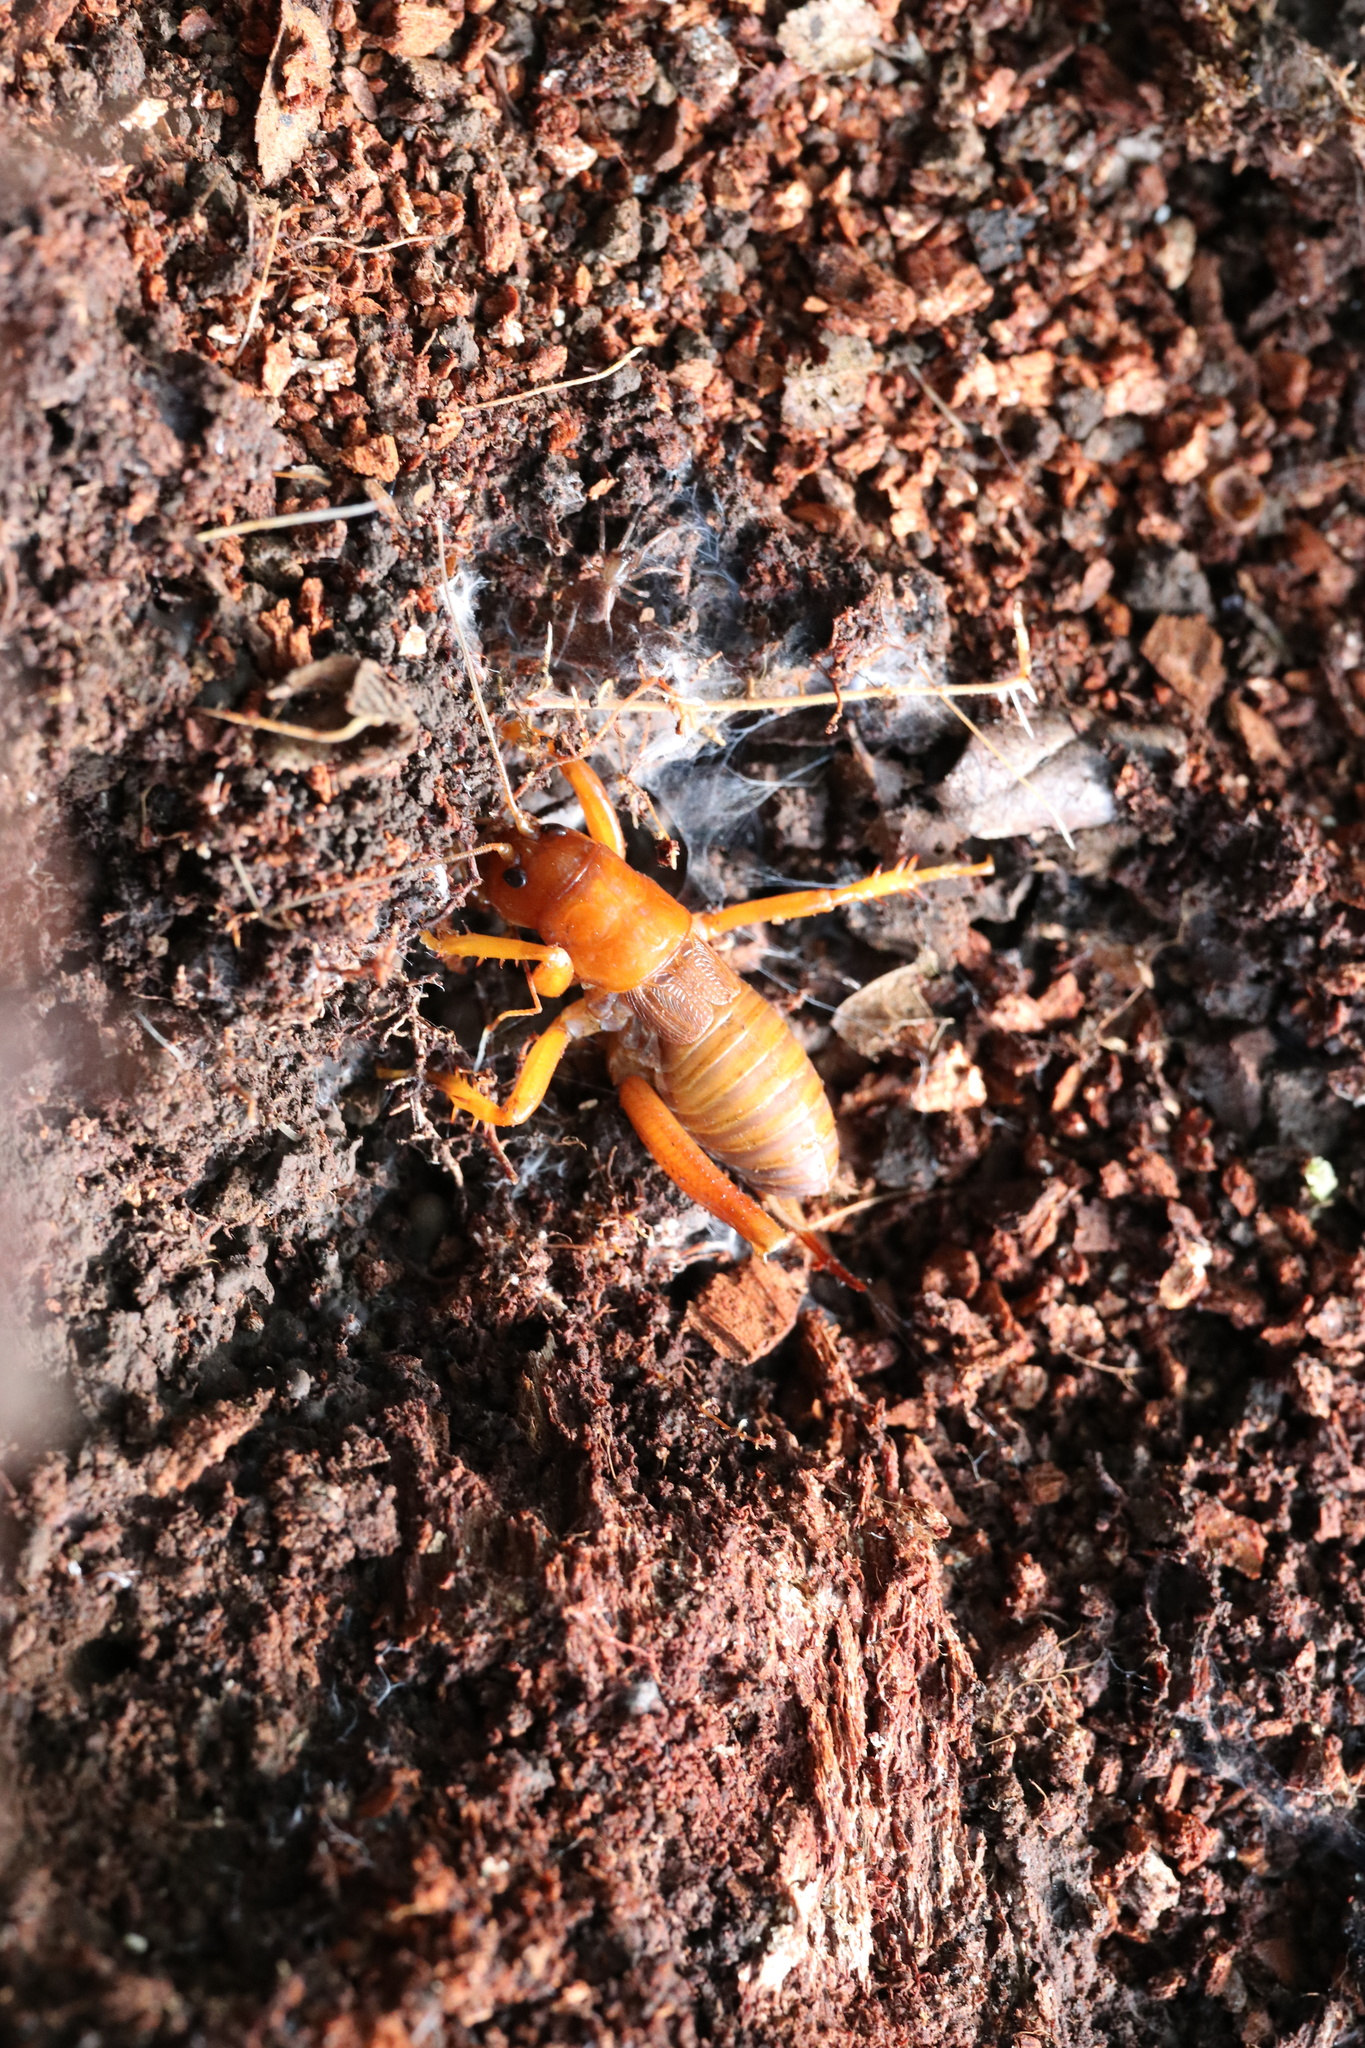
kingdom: Animalia
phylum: Arthropoda
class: Insecta
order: Orthoptera
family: Anostostomatidae
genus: Cratomelus
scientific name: Cratomelus armatus
